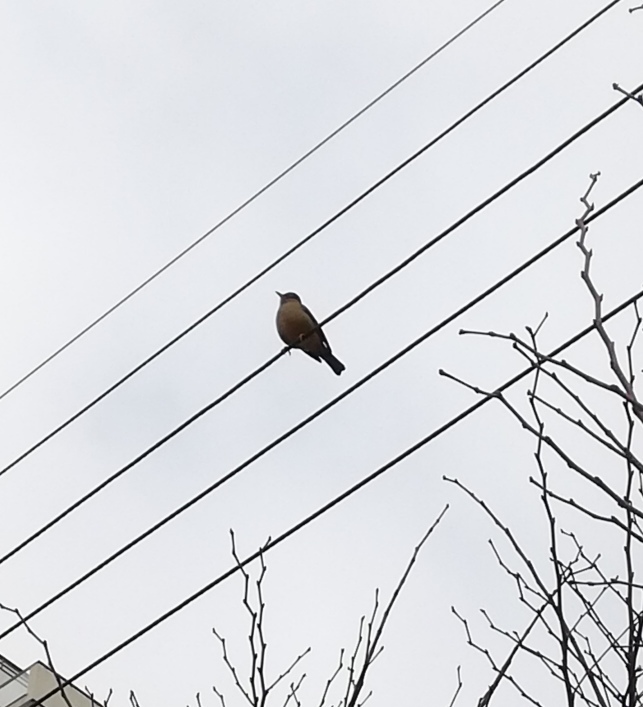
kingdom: Animalia
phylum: Chordata
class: Aves
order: Passeriformes
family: Turdidae
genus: Turdus
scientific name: Turdus falcklandii
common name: Austral thrush
